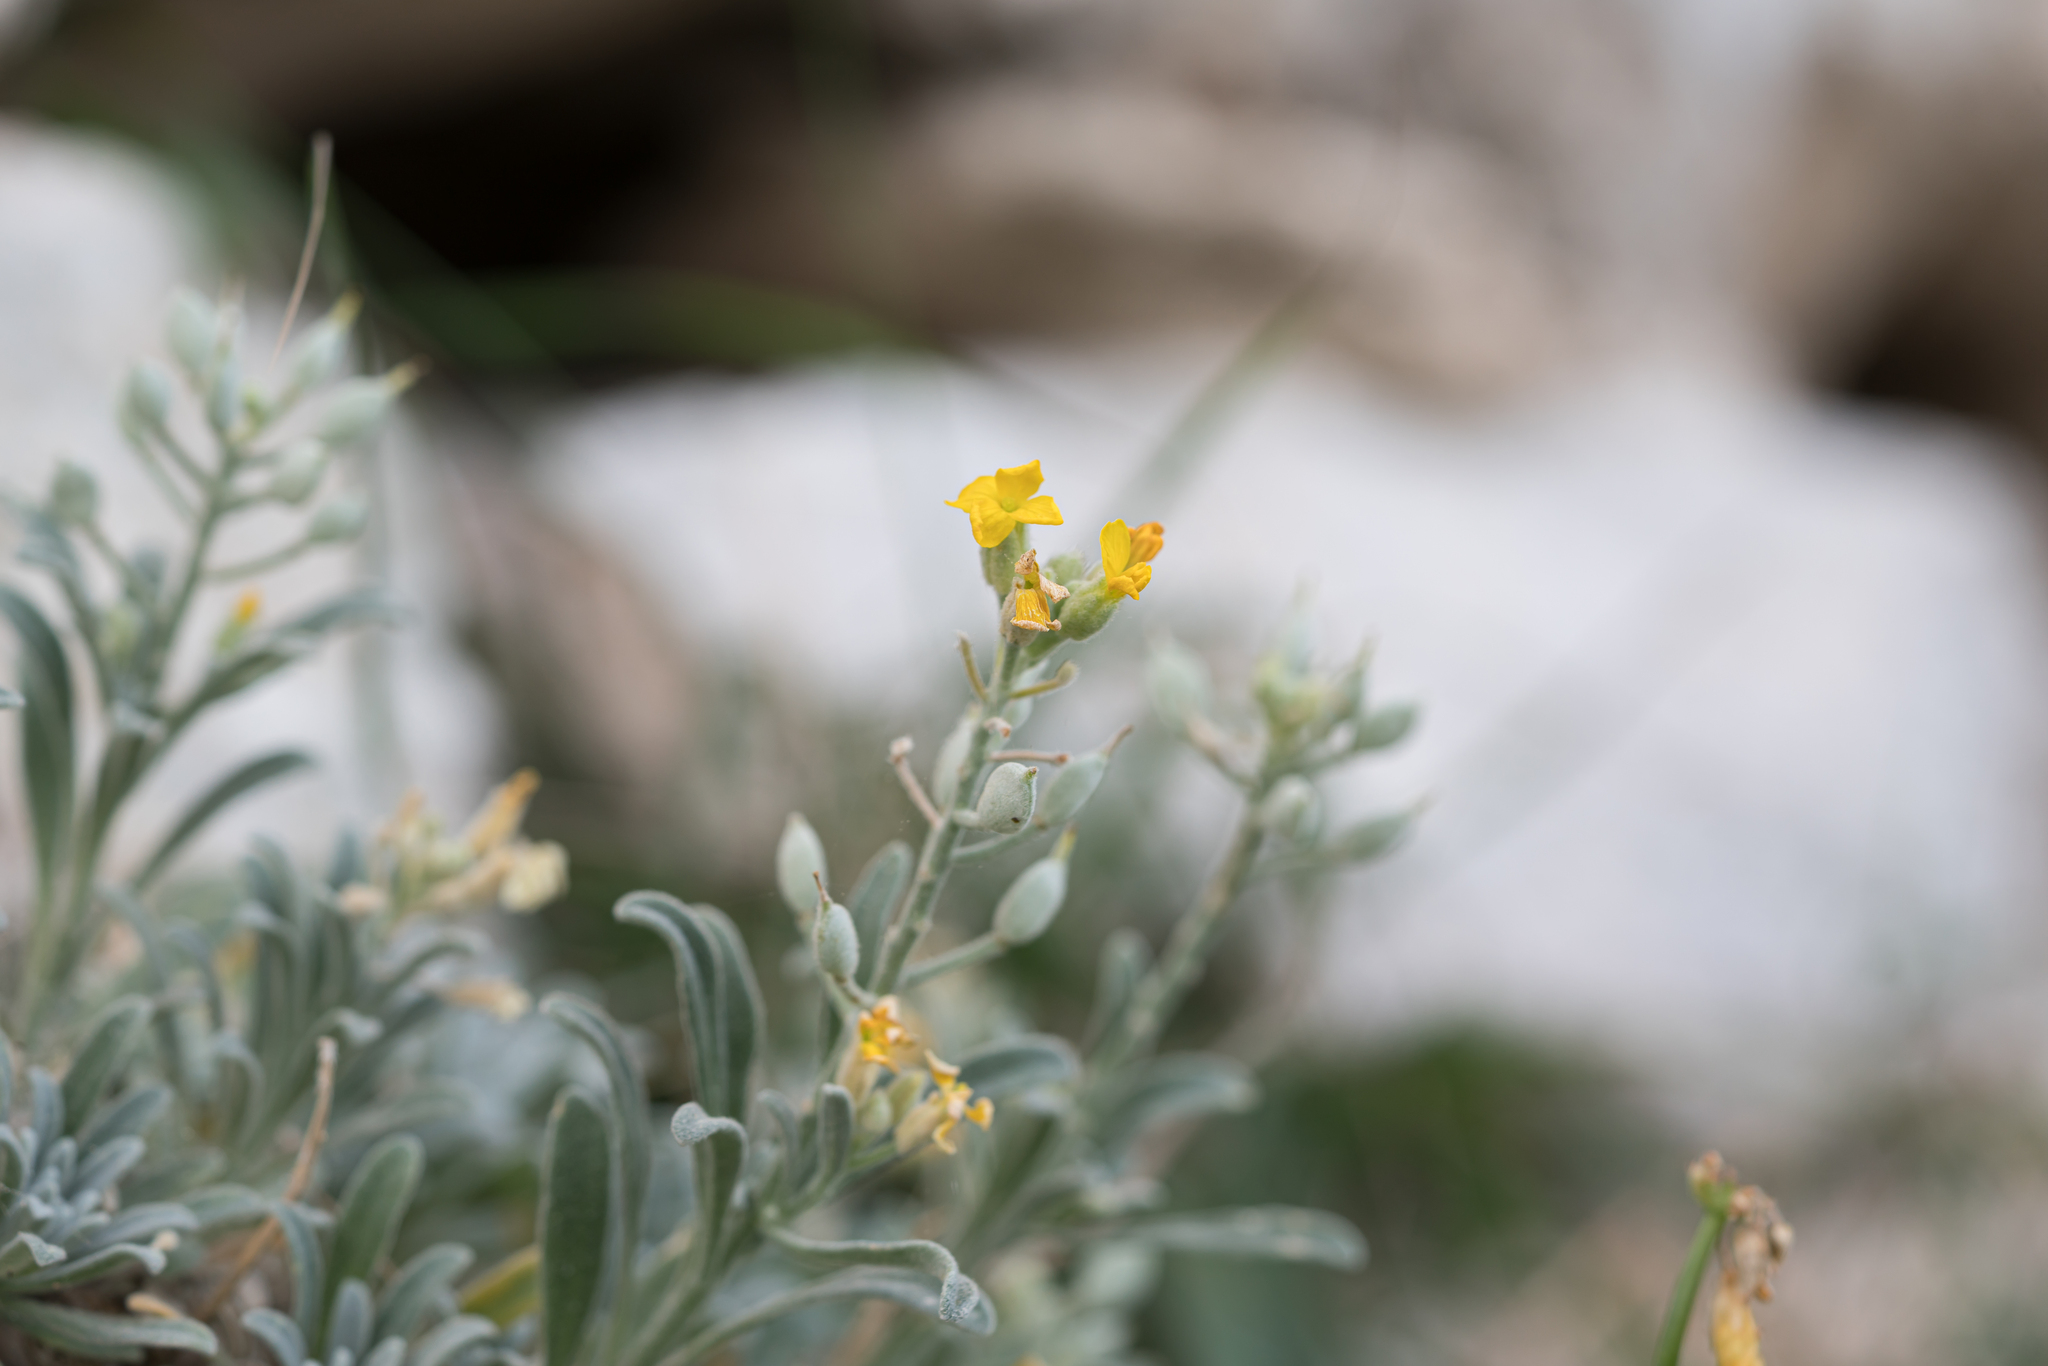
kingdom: Plantae
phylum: Tracheophyta
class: Magnoliopsida
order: Brassicales
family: Brassicaceae
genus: Acuston
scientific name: Acuston perenne
